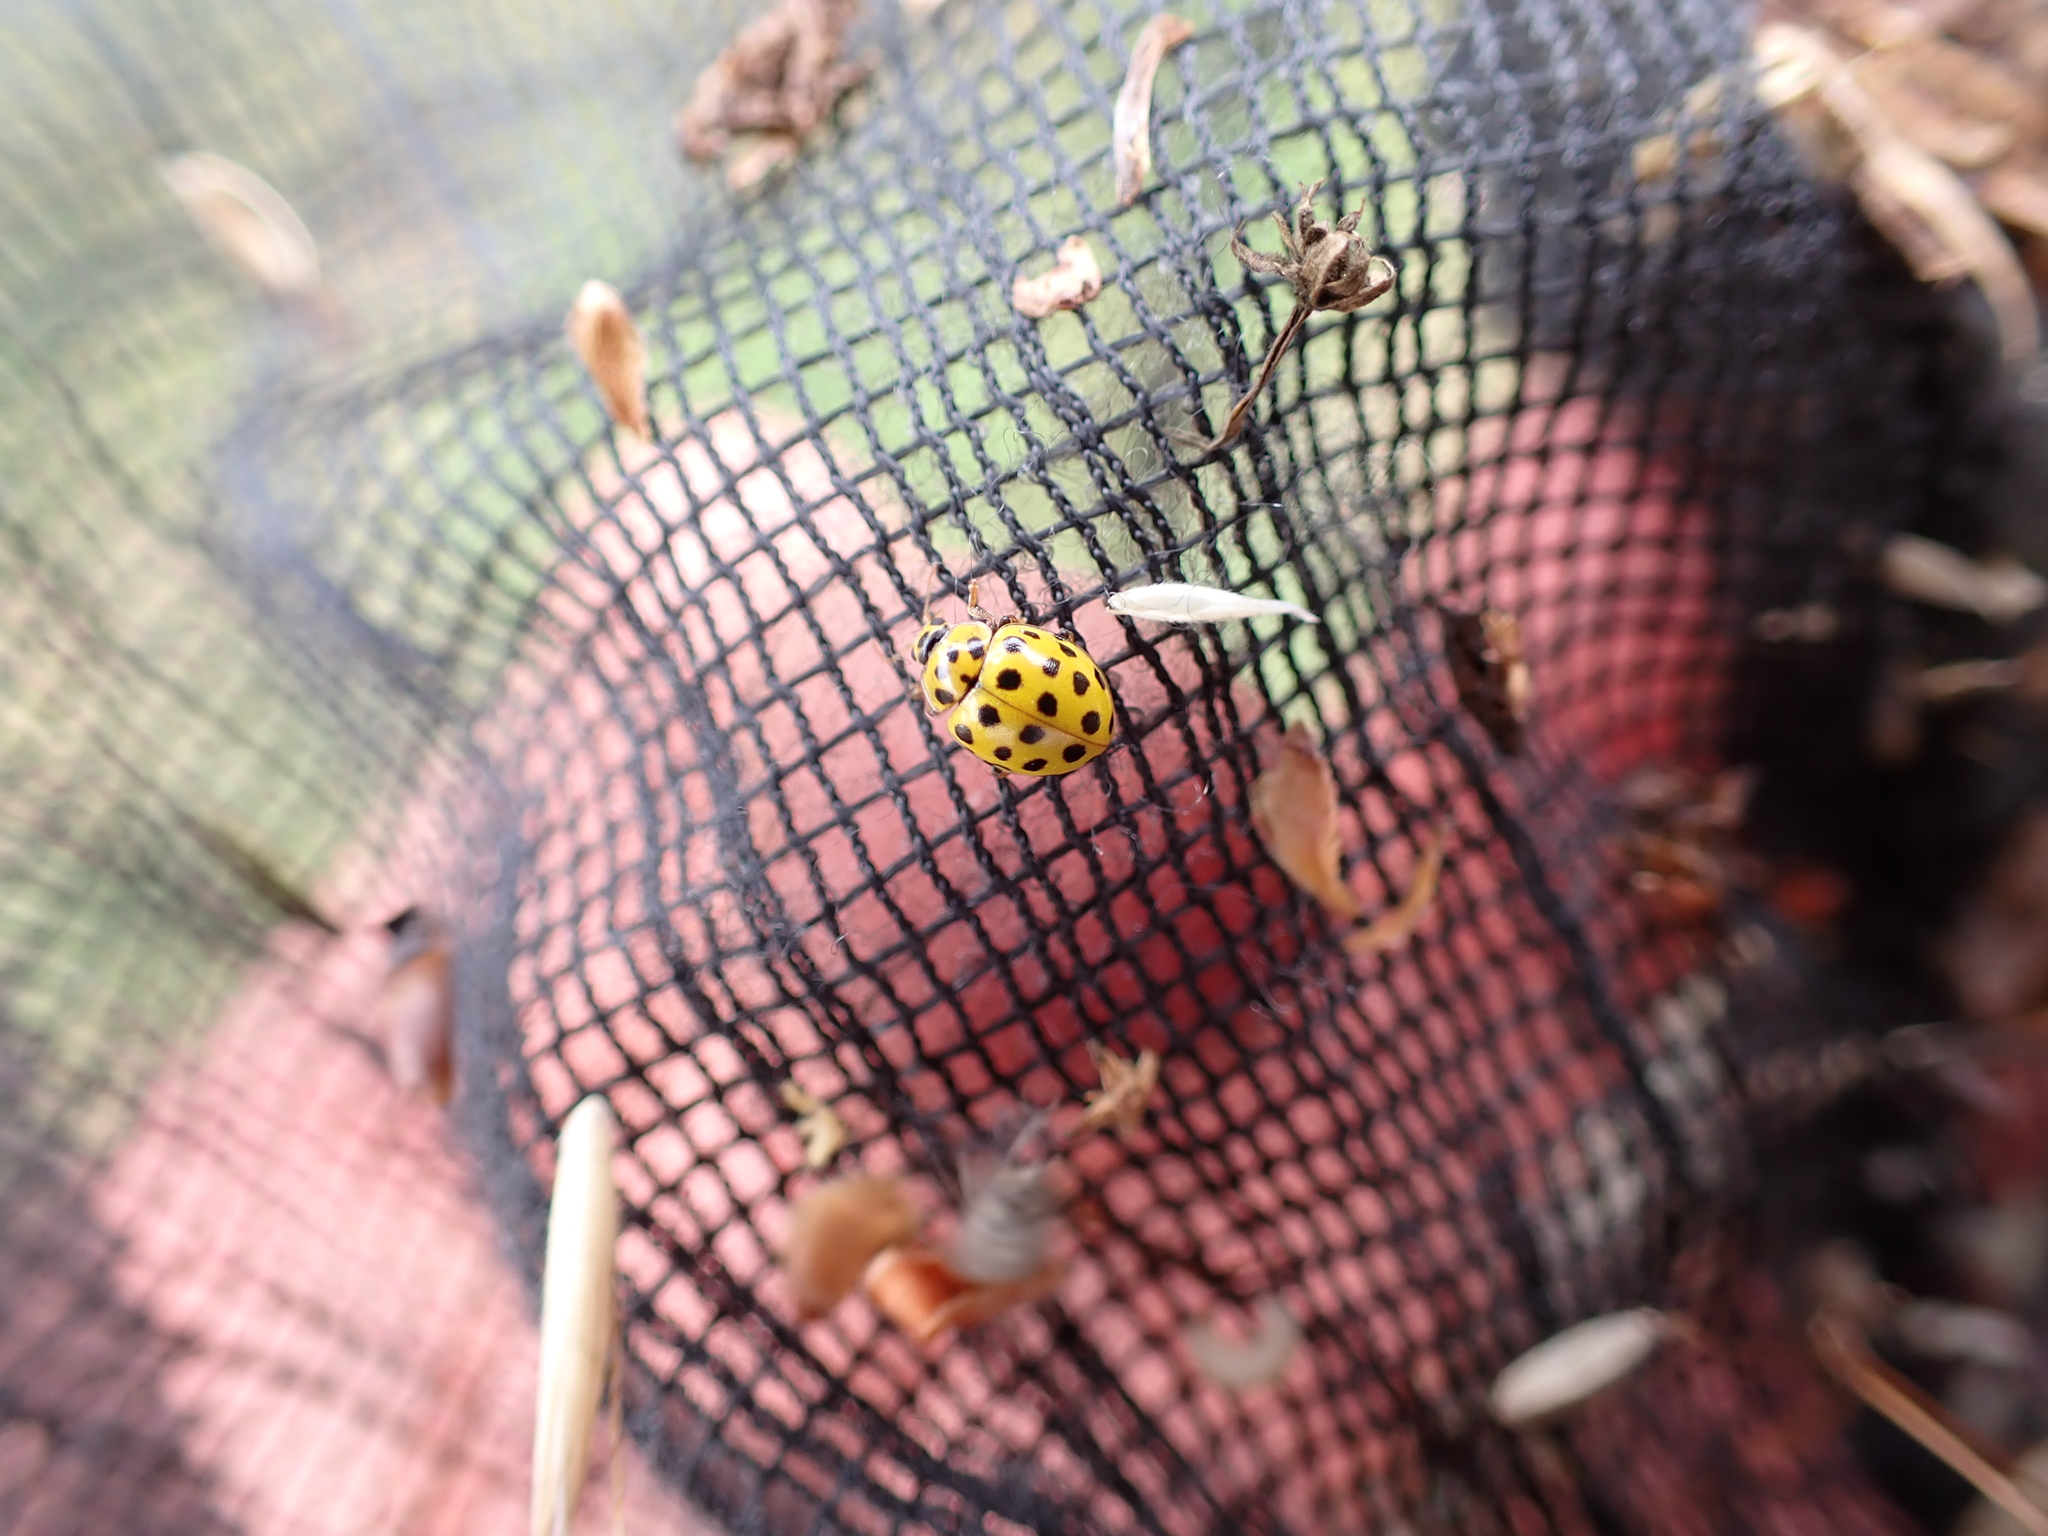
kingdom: Animalia
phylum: Arthropoda
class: Insecta
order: Coleoptera
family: Coccinellidae
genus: Psyllobora
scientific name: Psyllobora vigintiduopunctata
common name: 22-spot ladybird
